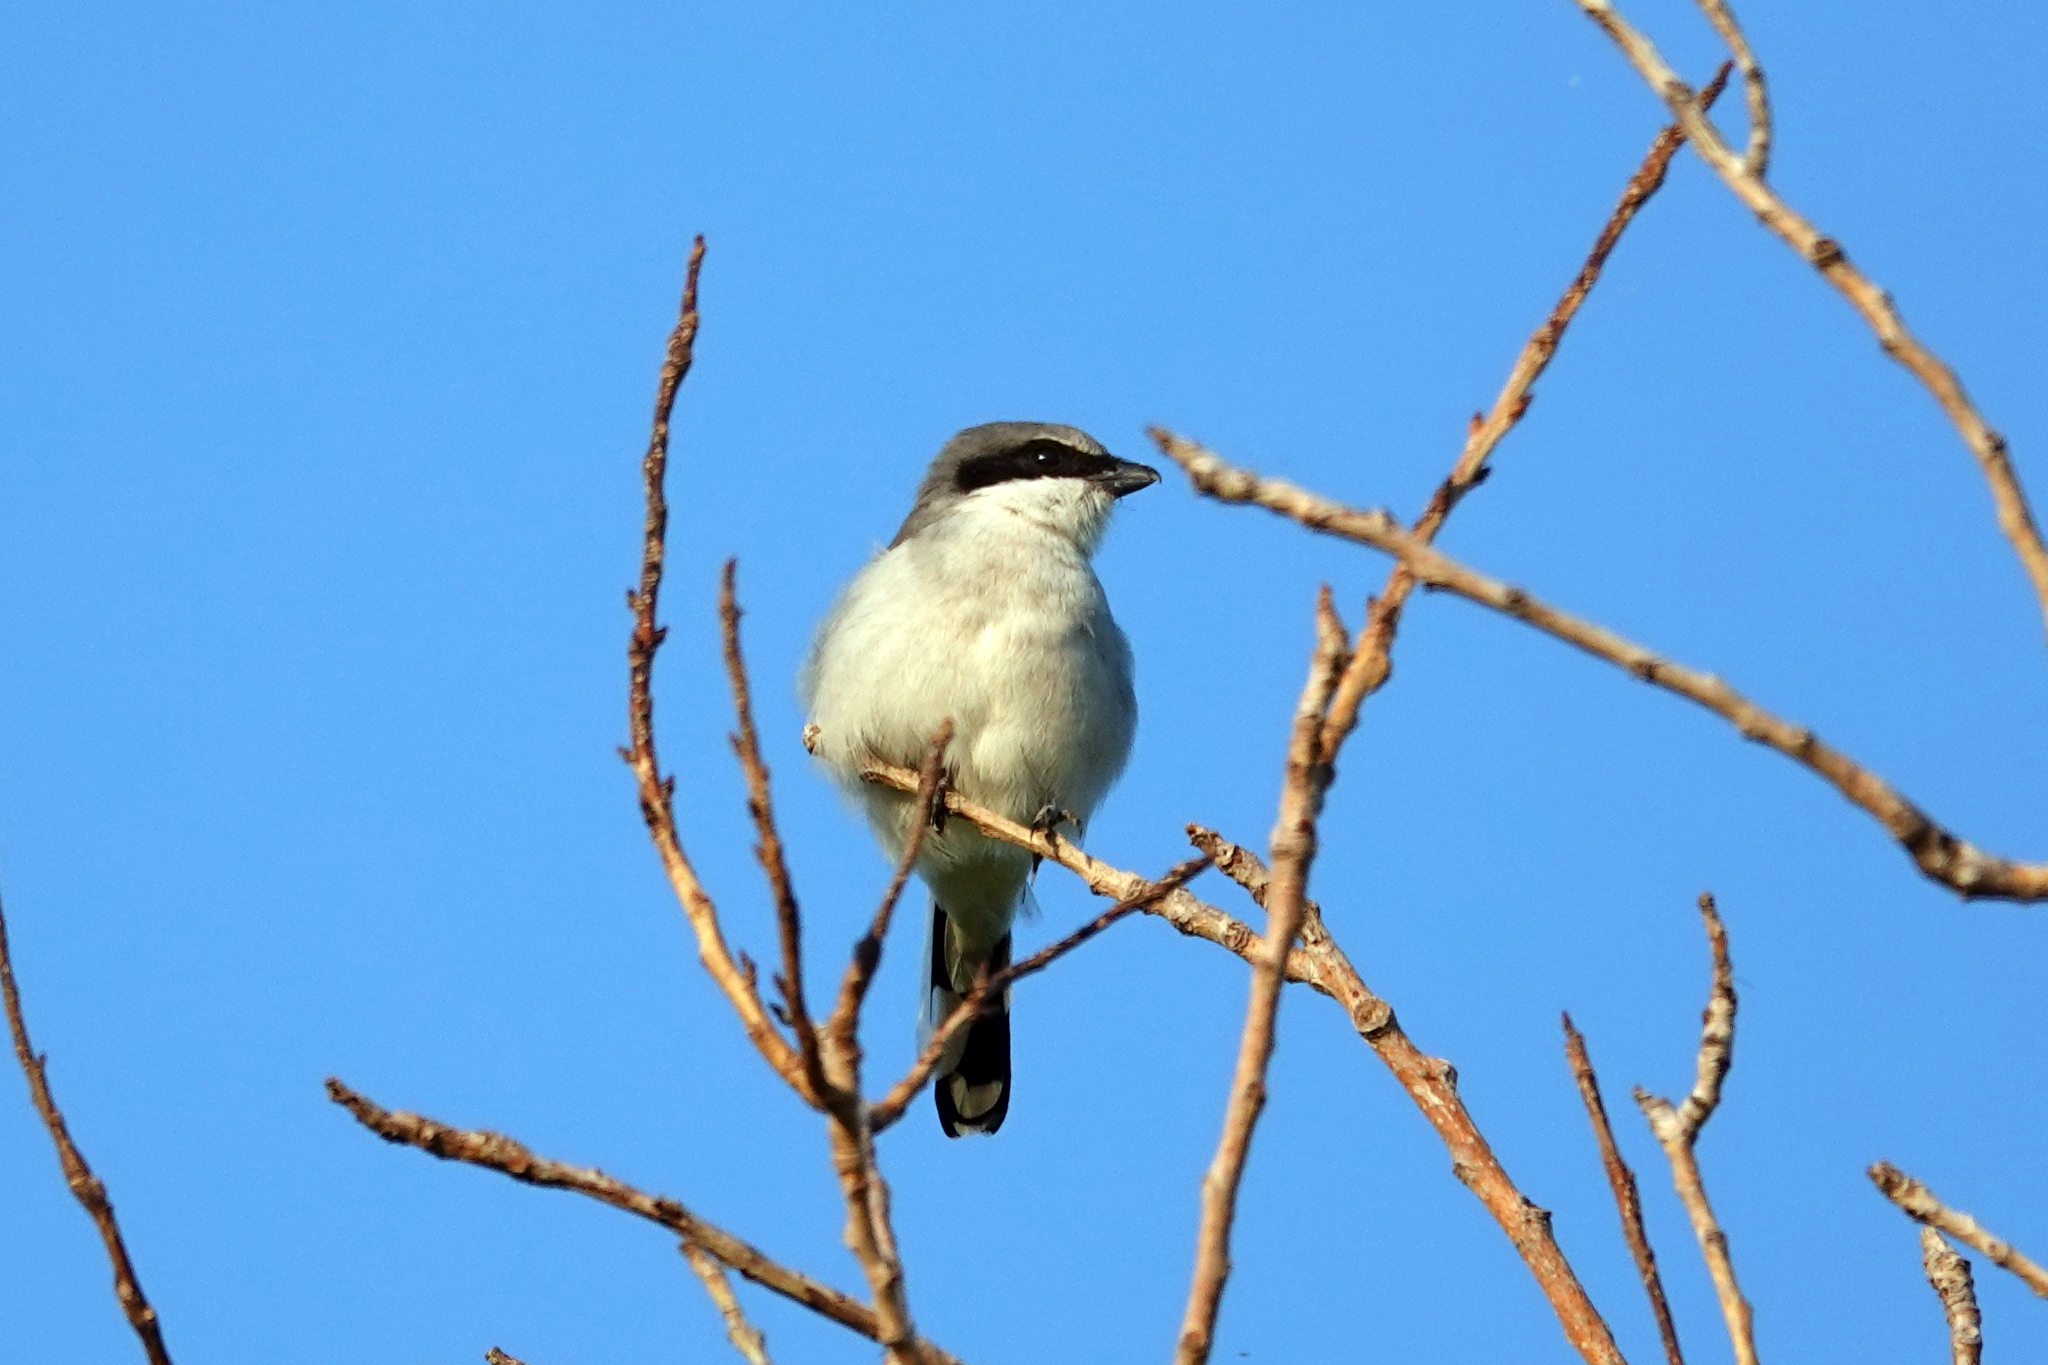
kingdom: Animalia
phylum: Chordata
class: Aves
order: Passeriformes
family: Laniidae
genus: Lanius
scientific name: Lanius ludovicianus
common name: Loggerhead shrike
